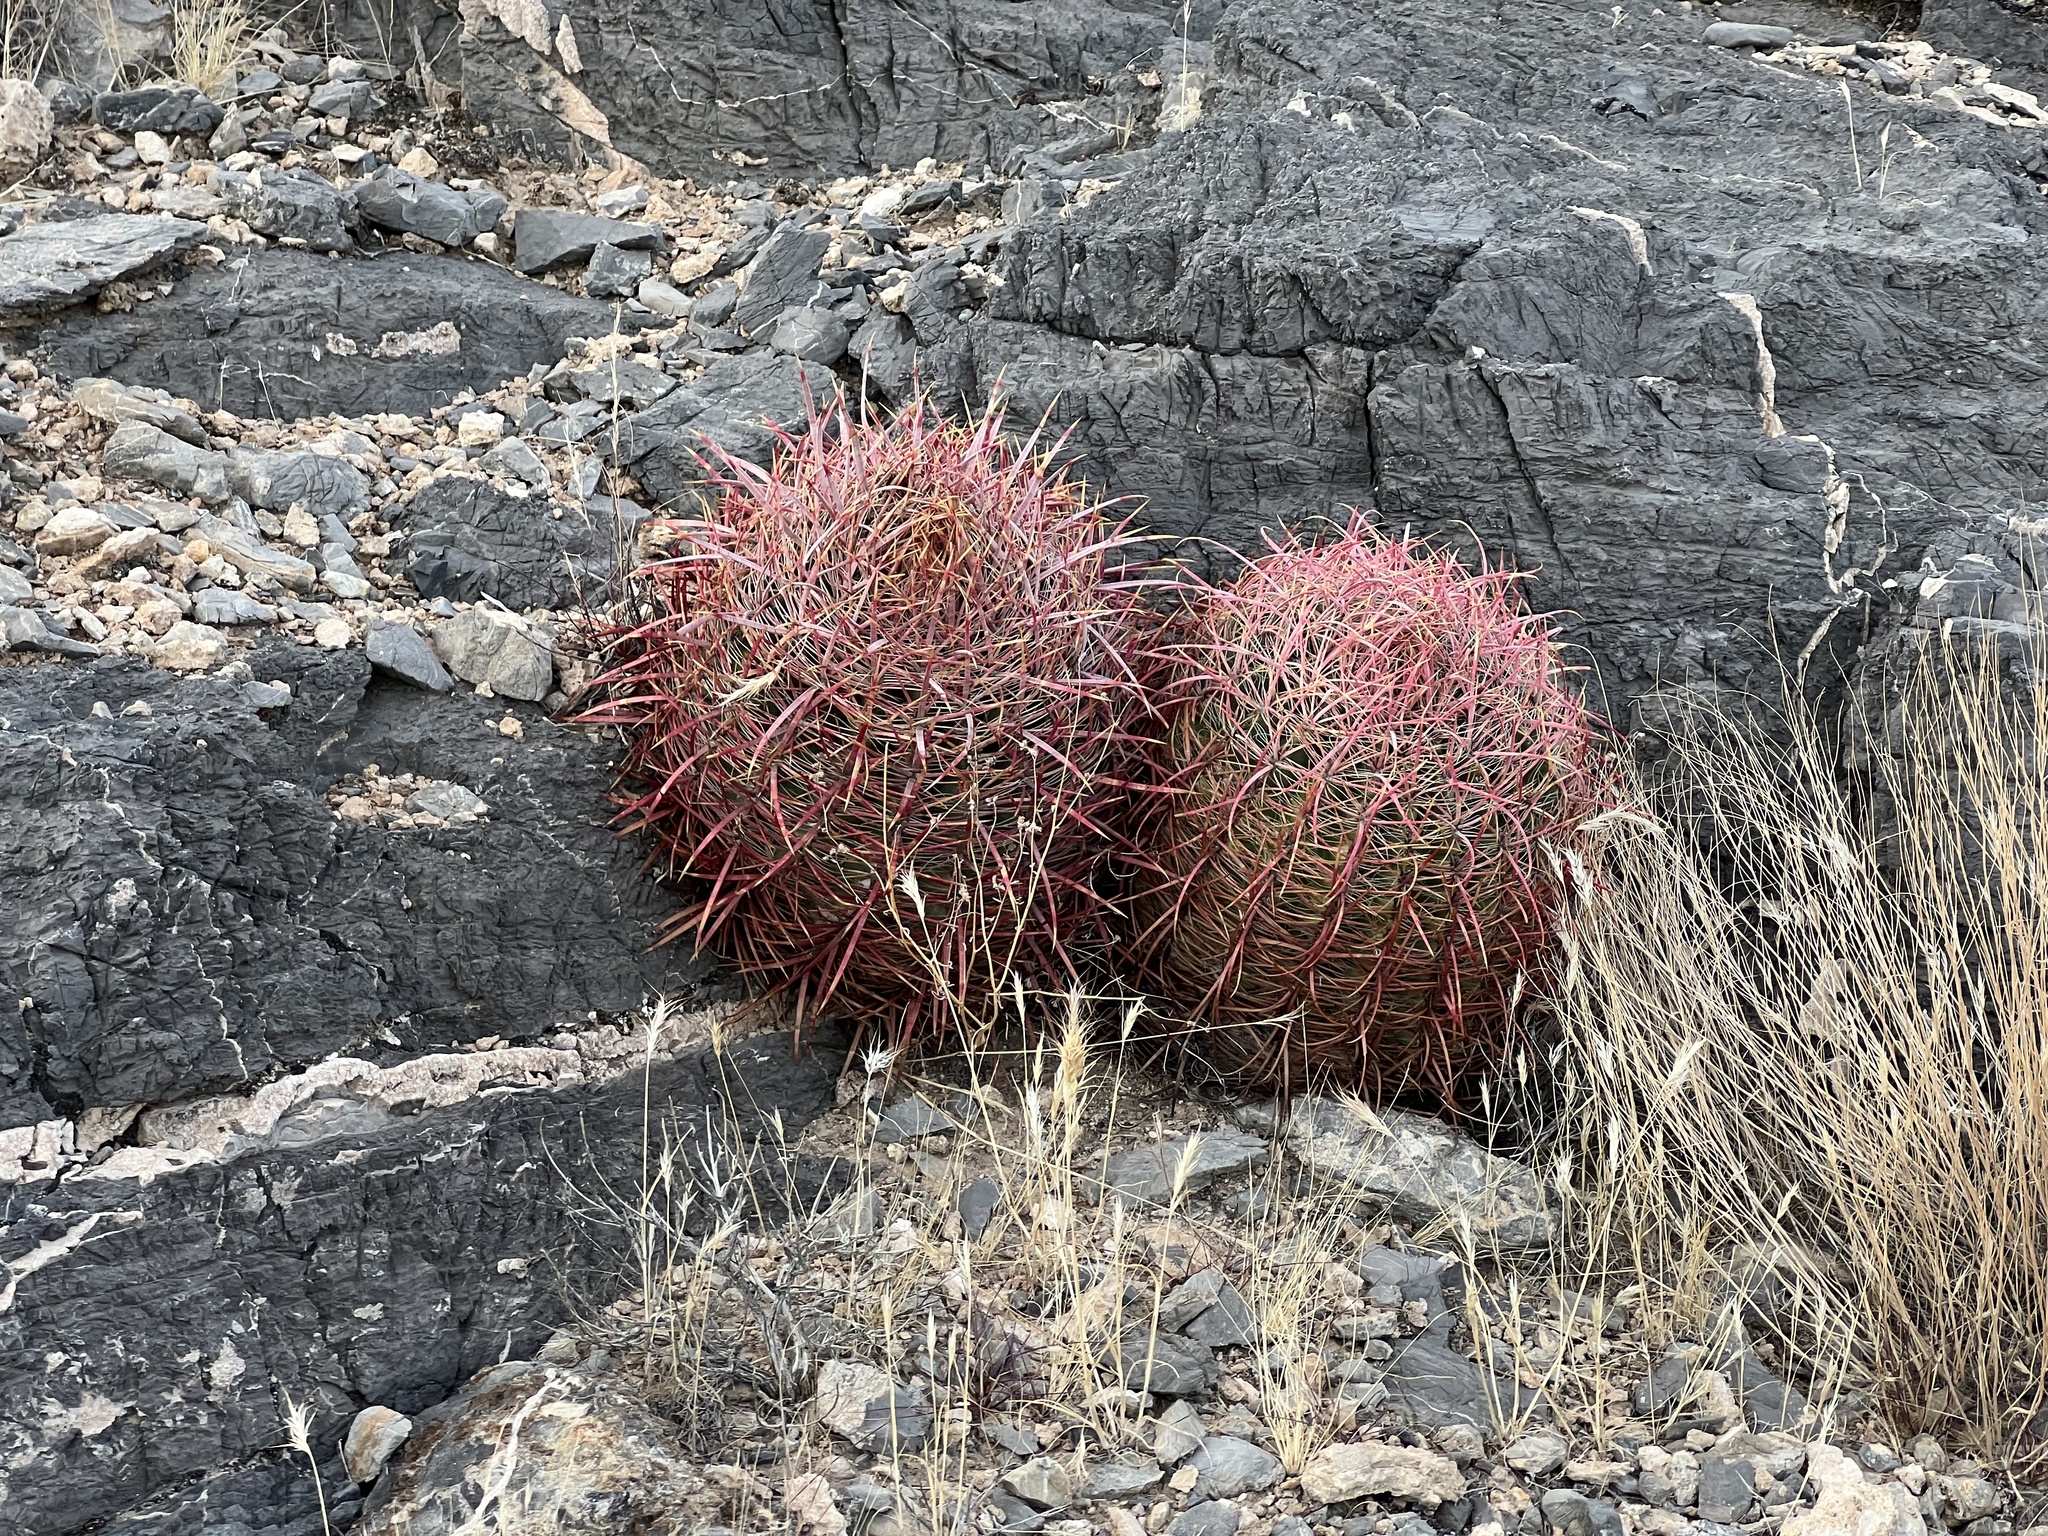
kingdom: Plantae
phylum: Tracheophyta
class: Magnoliopsida
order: Caryophyllales
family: Cactaceae
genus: Ferocactus
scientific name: Ferocactus cylindraceus
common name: California barrel cactus
